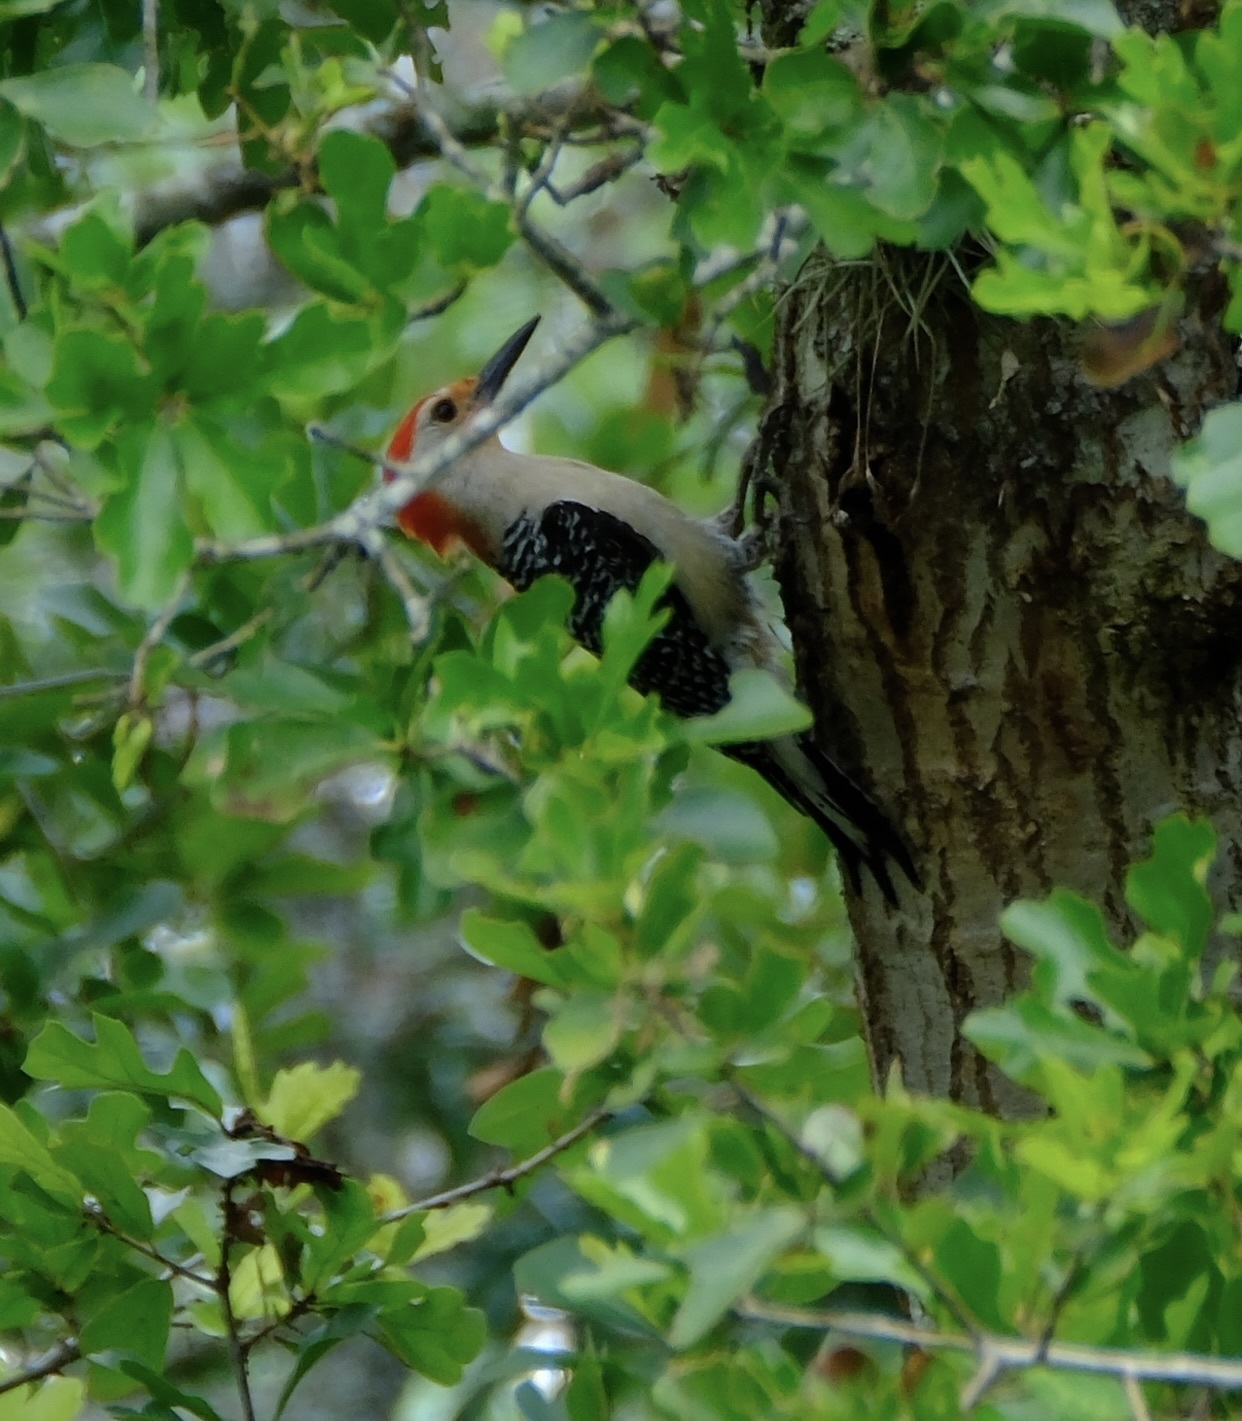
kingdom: Animalia
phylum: Chordata
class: Aves
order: Piciformes
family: Picidae
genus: Melanerpes
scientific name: Melanerpes carolinus
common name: Red-bellied woodpecker
